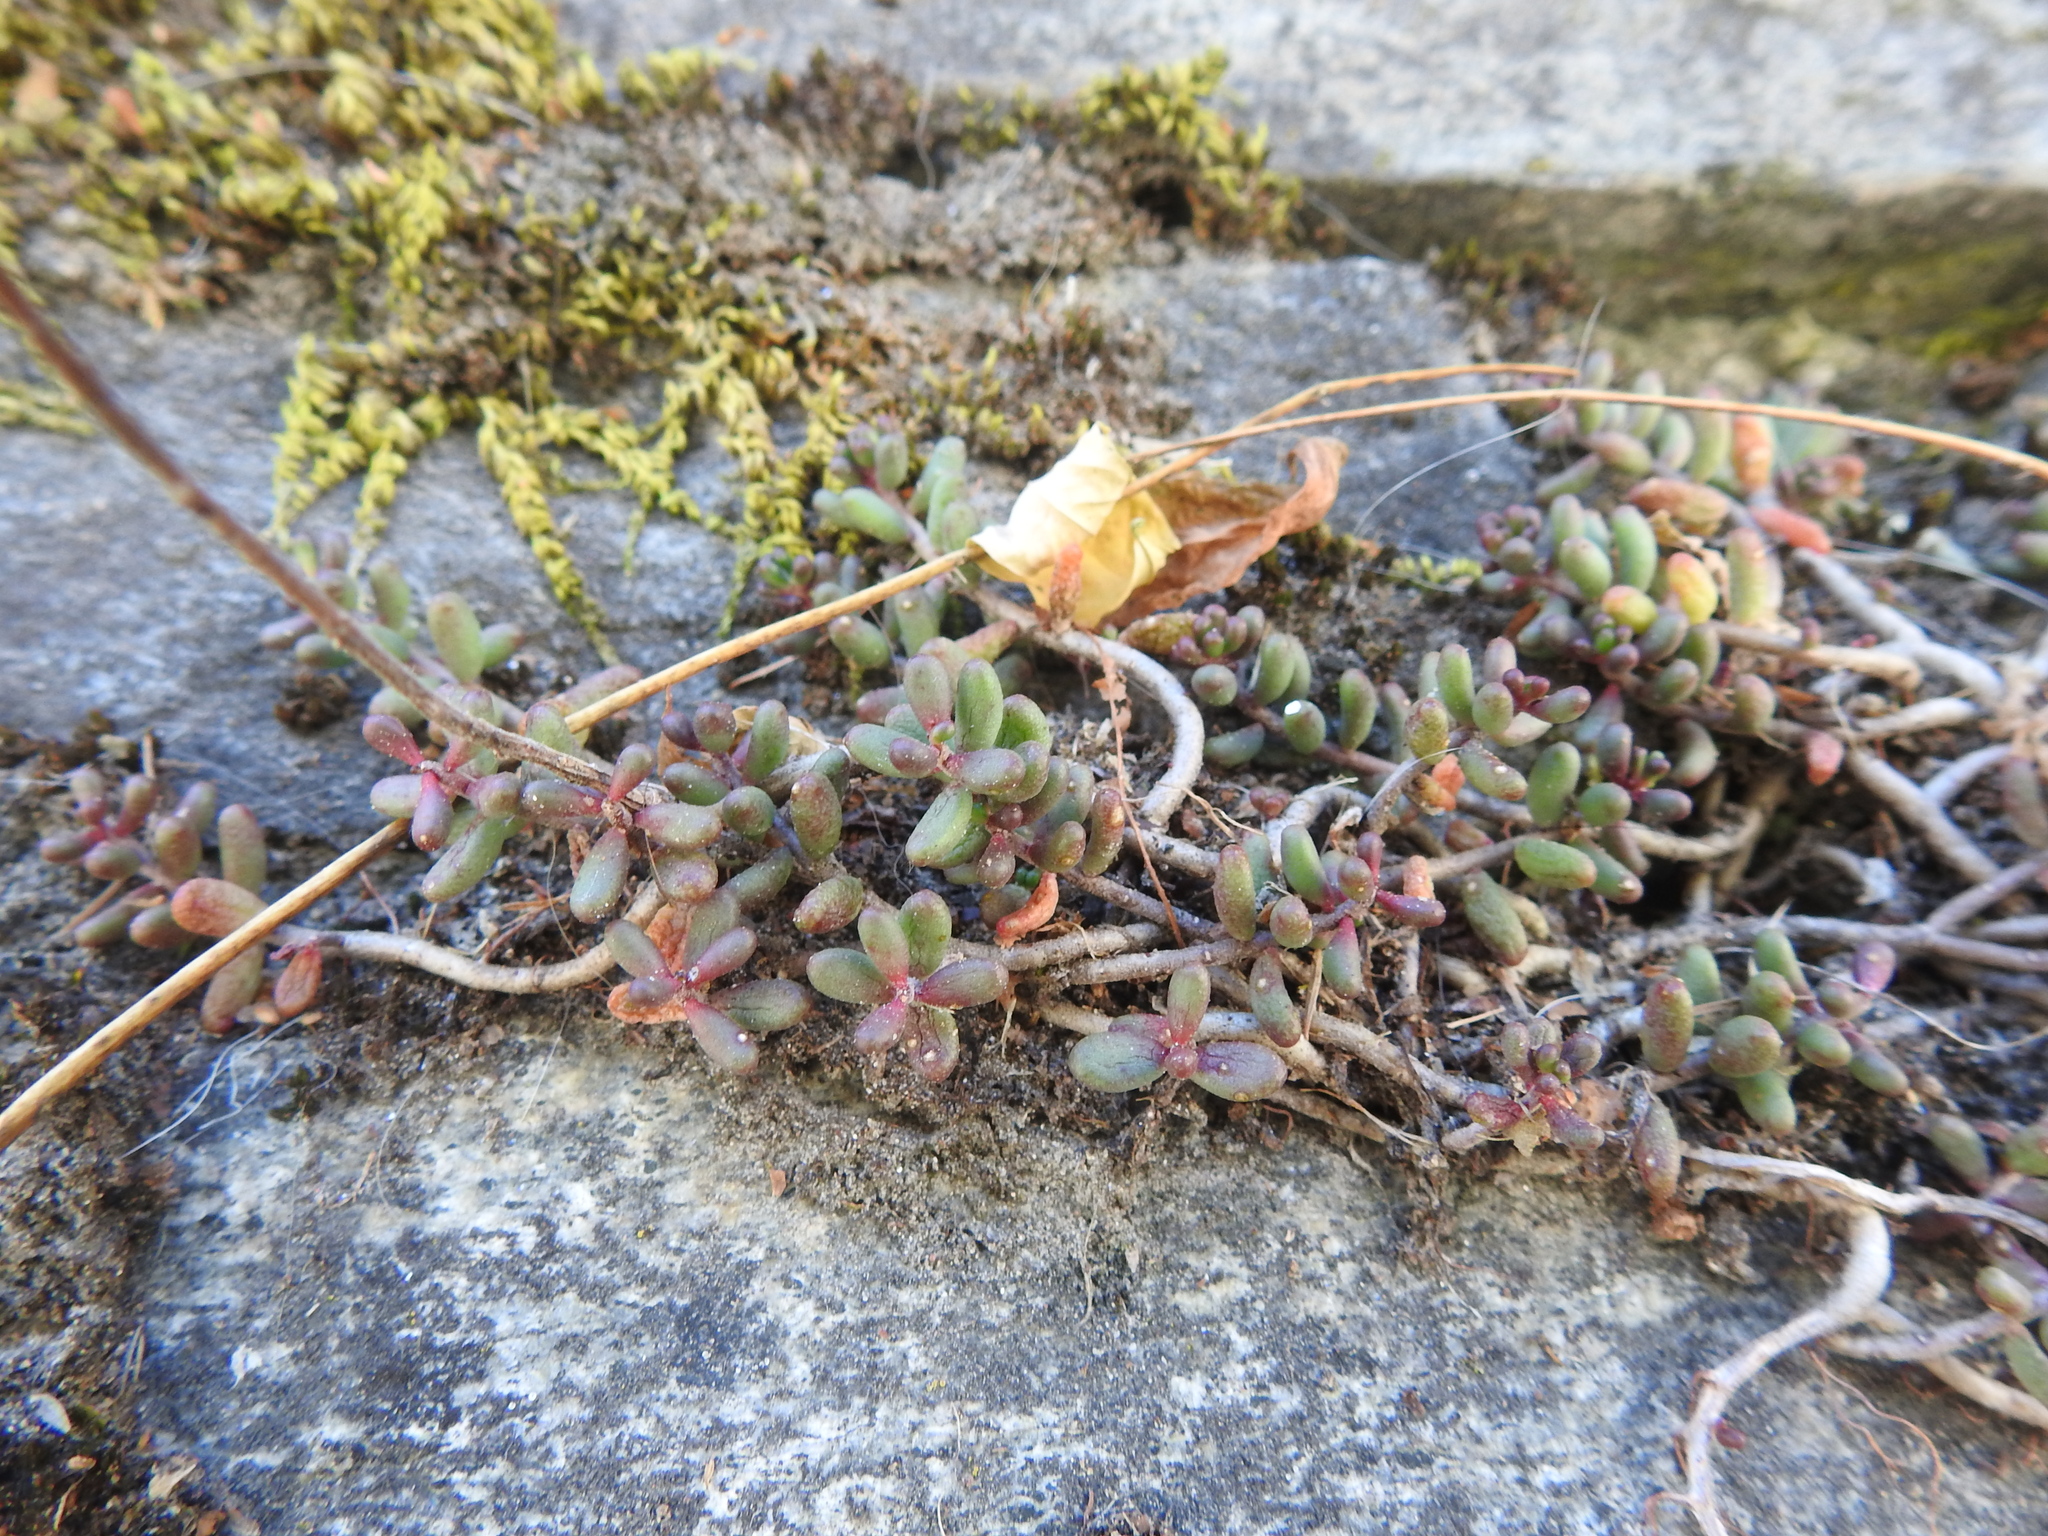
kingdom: Plantae
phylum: Tracheophyta
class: Magnoliopsida
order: Saxifragales
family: Crassulaceae
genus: Sedum
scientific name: Sedum album
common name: White stonecrop
